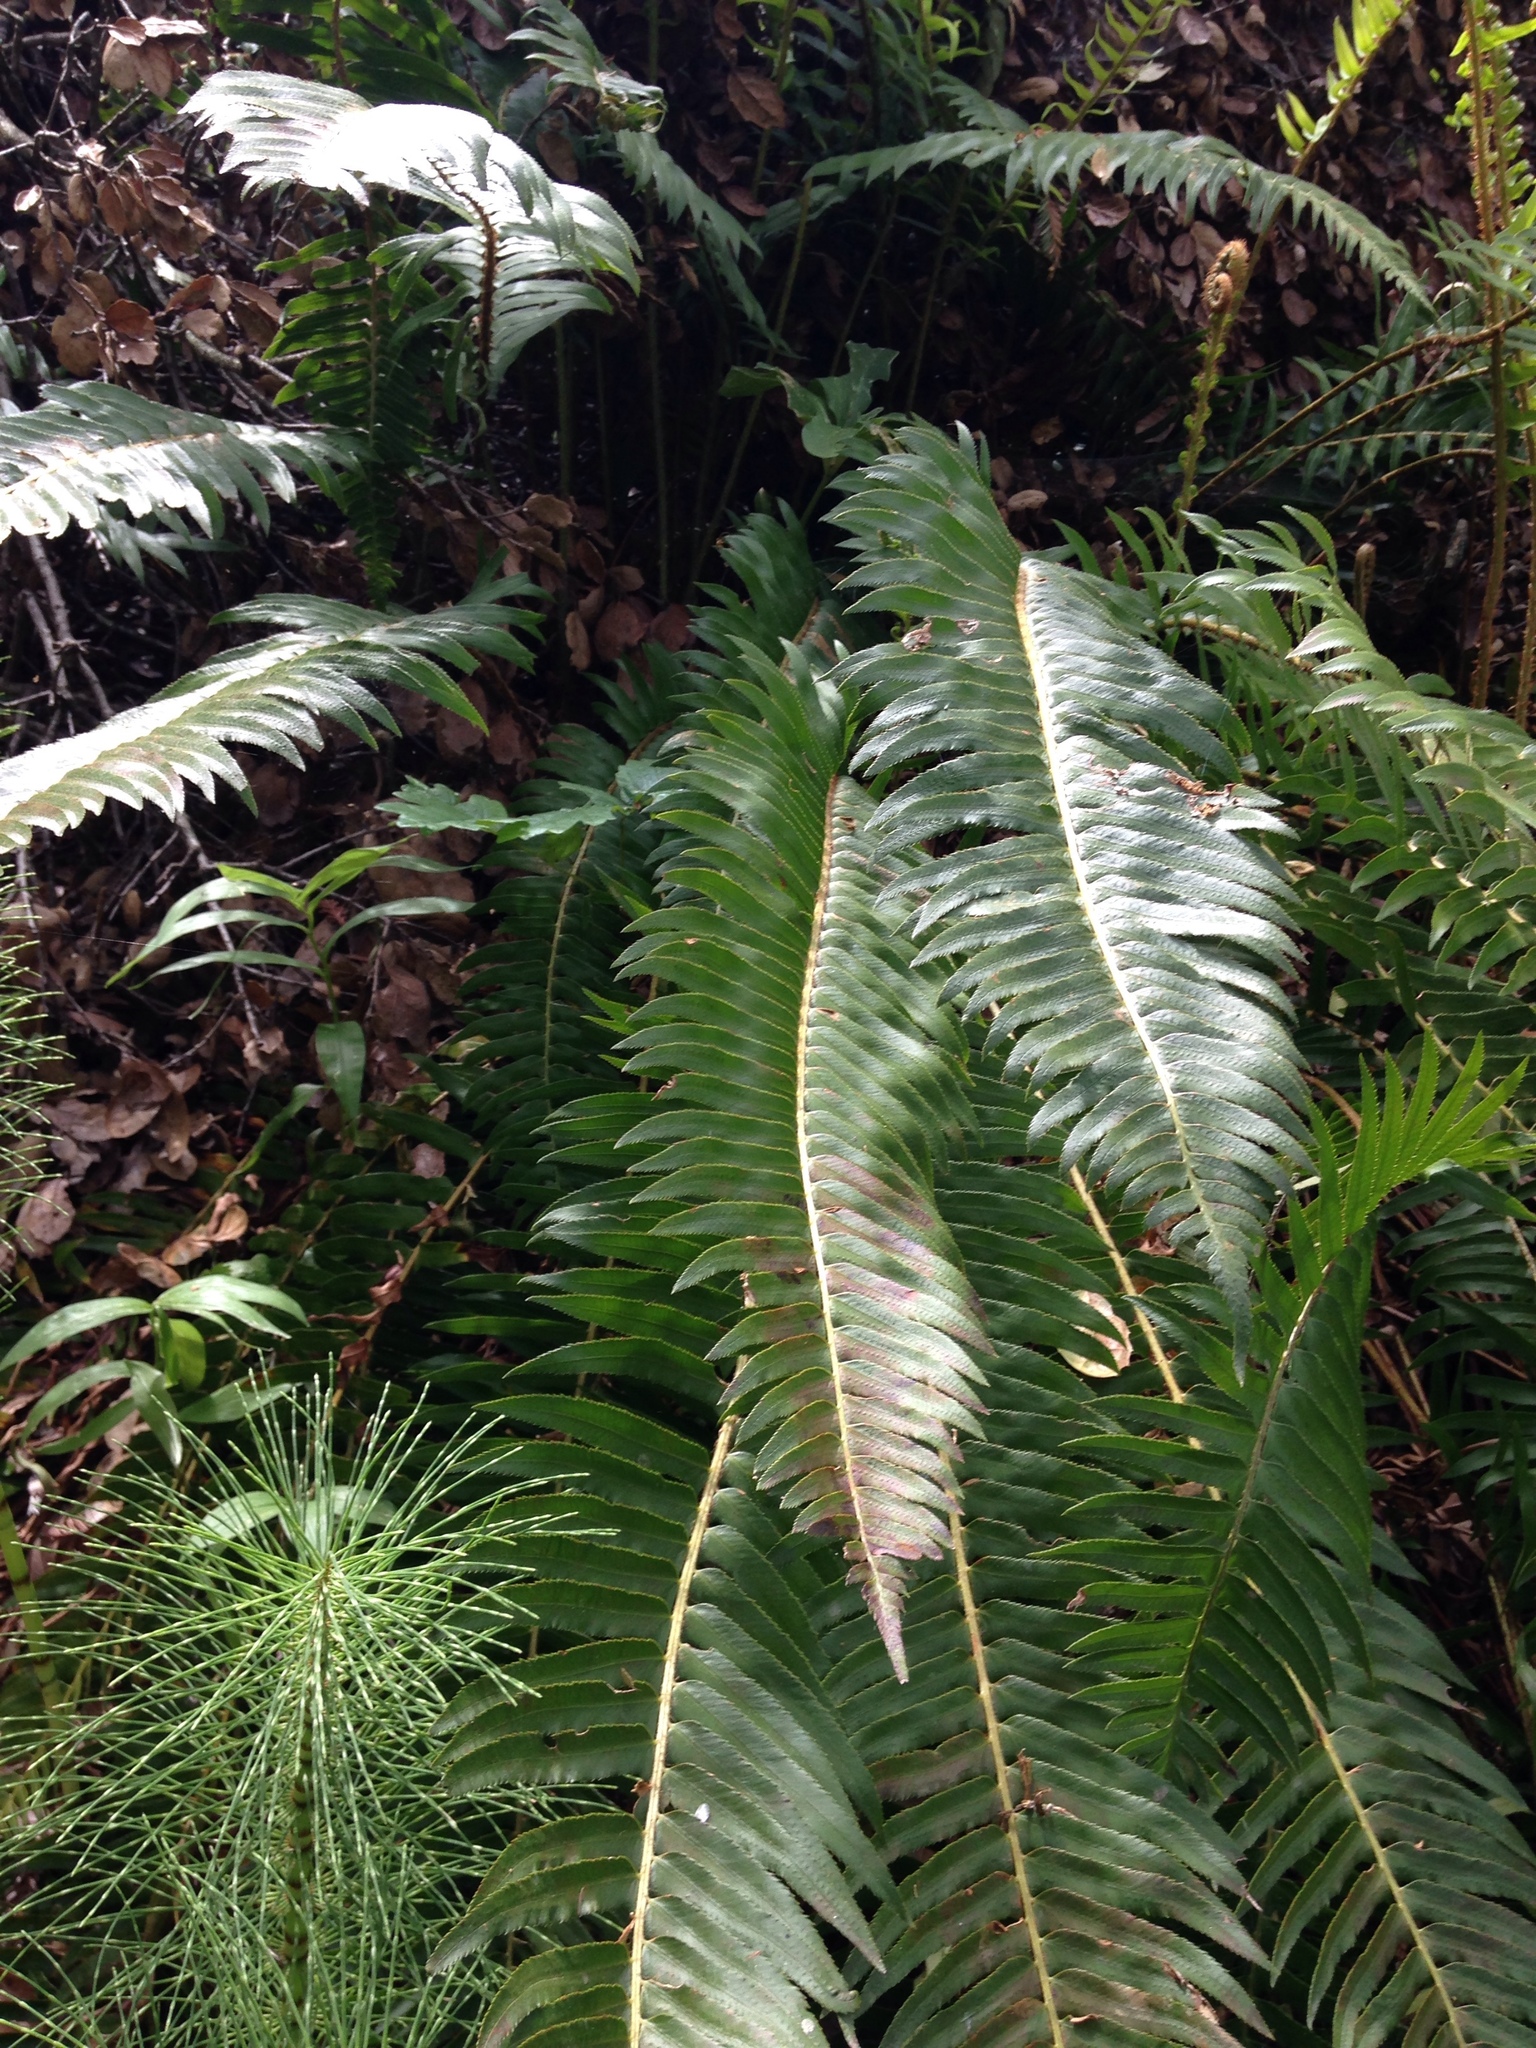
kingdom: Plantae
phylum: Tracheophyta
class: Polypodiopsida
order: Polypodiales
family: Dryopteridaceae
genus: Polystichum
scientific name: Polystichum munitum
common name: Western sword-fern
